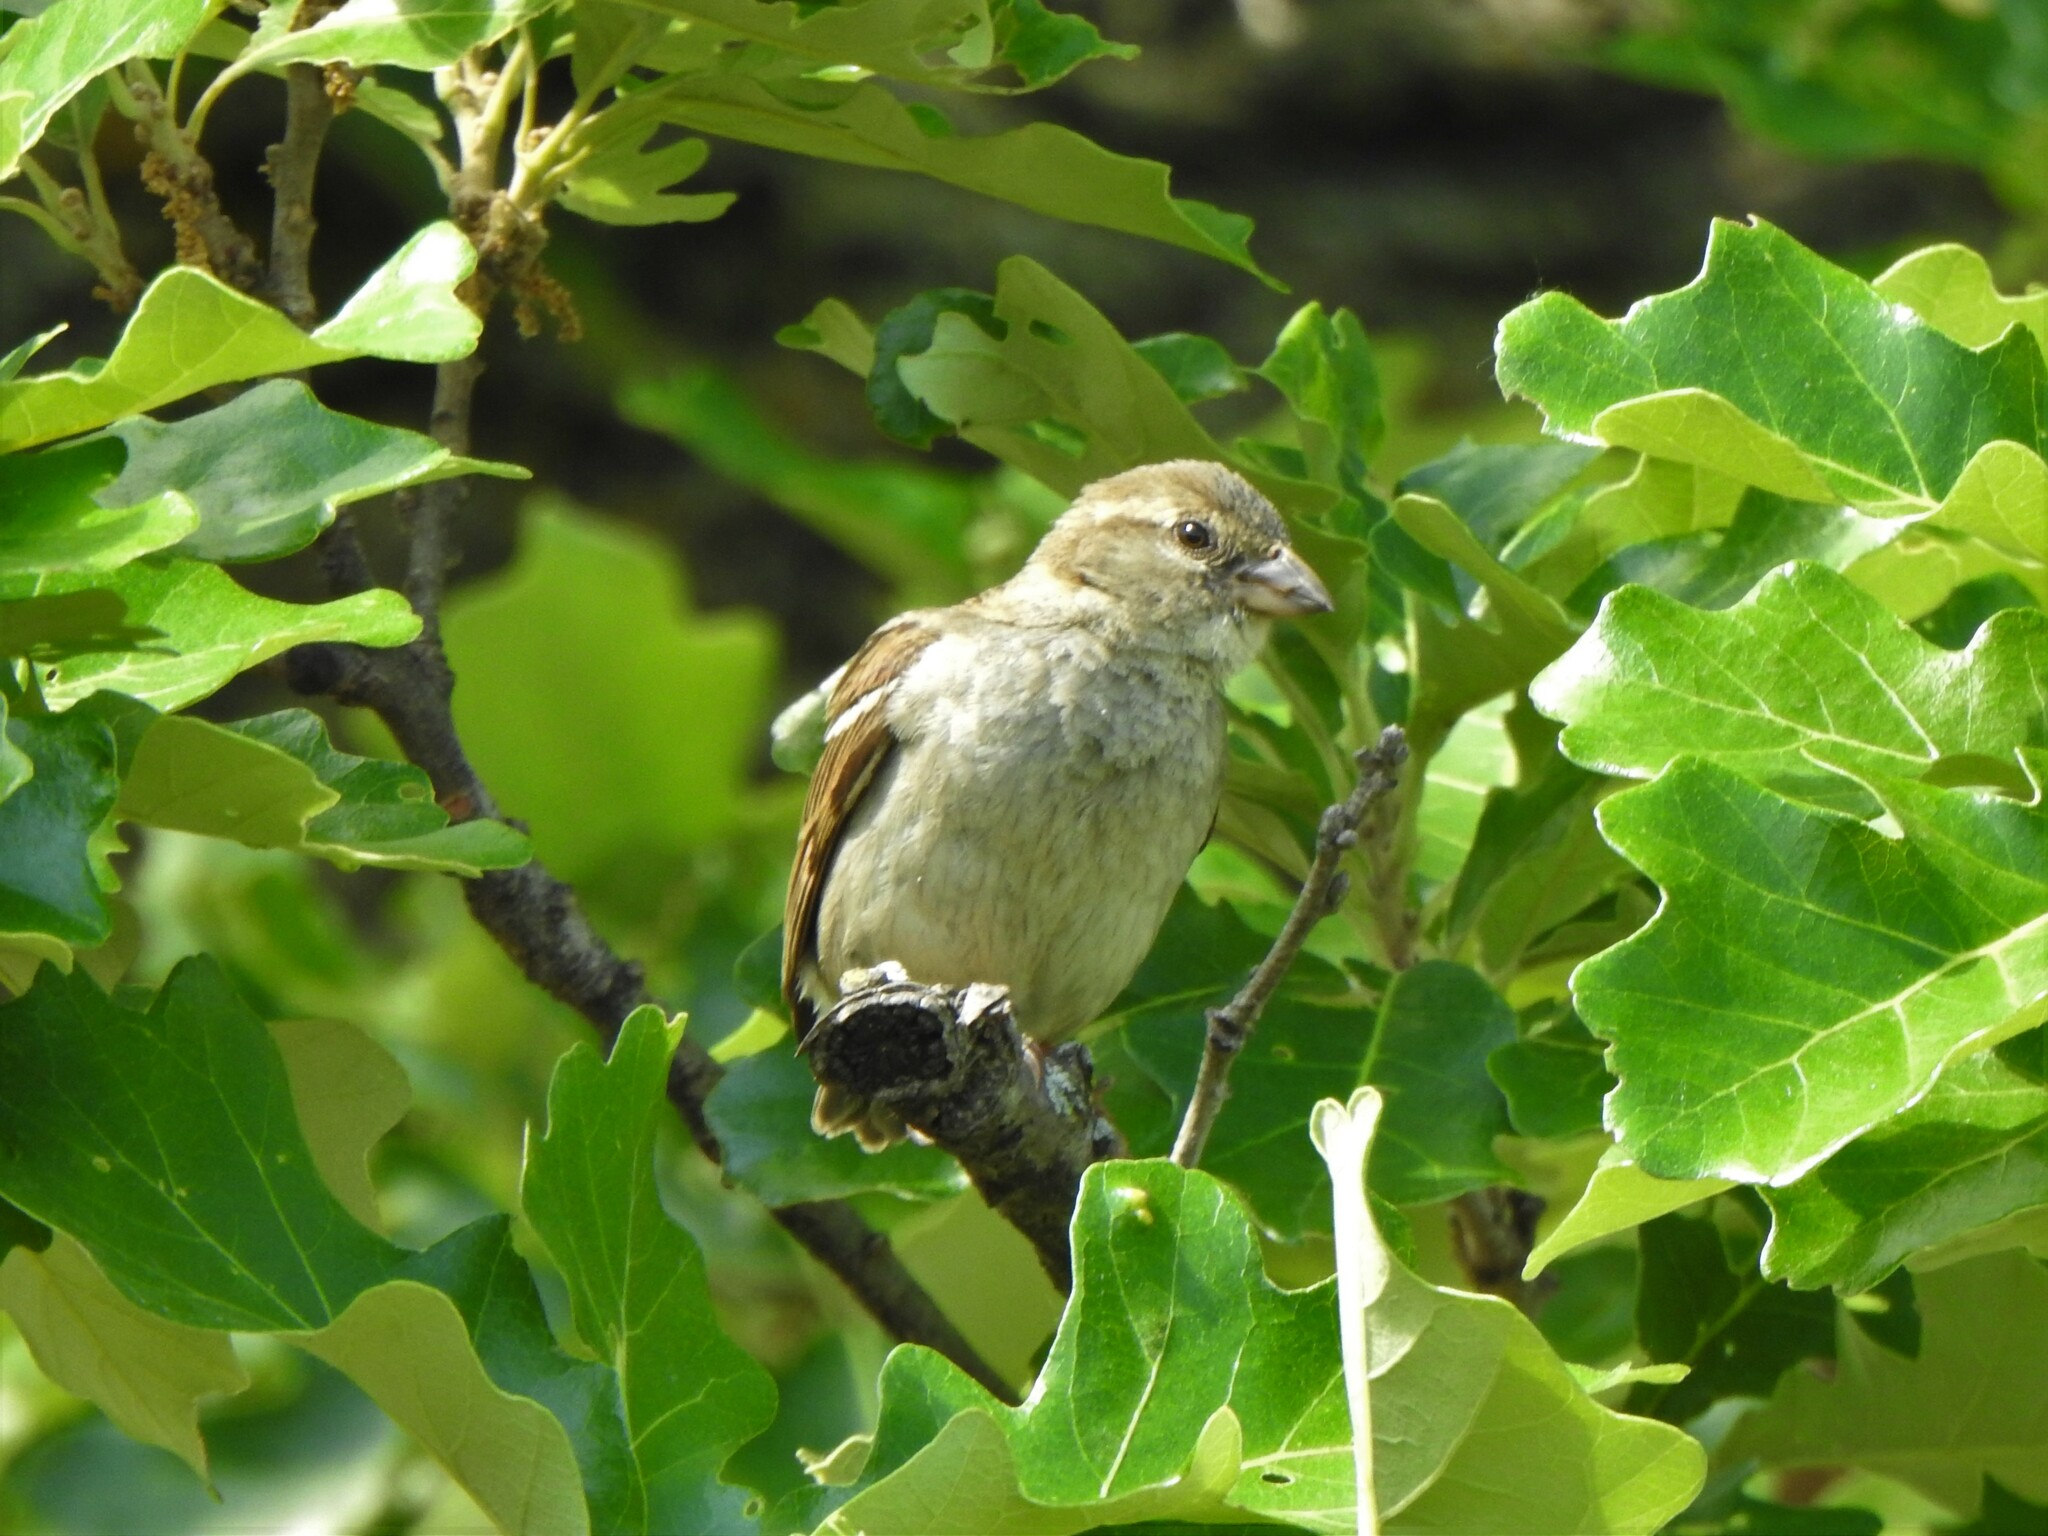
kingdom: Animalia
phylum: Chordata
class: Aves
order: Passeriformes
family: Passeridae
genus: Passer
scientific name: Passer domesticus
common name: House sparrow
